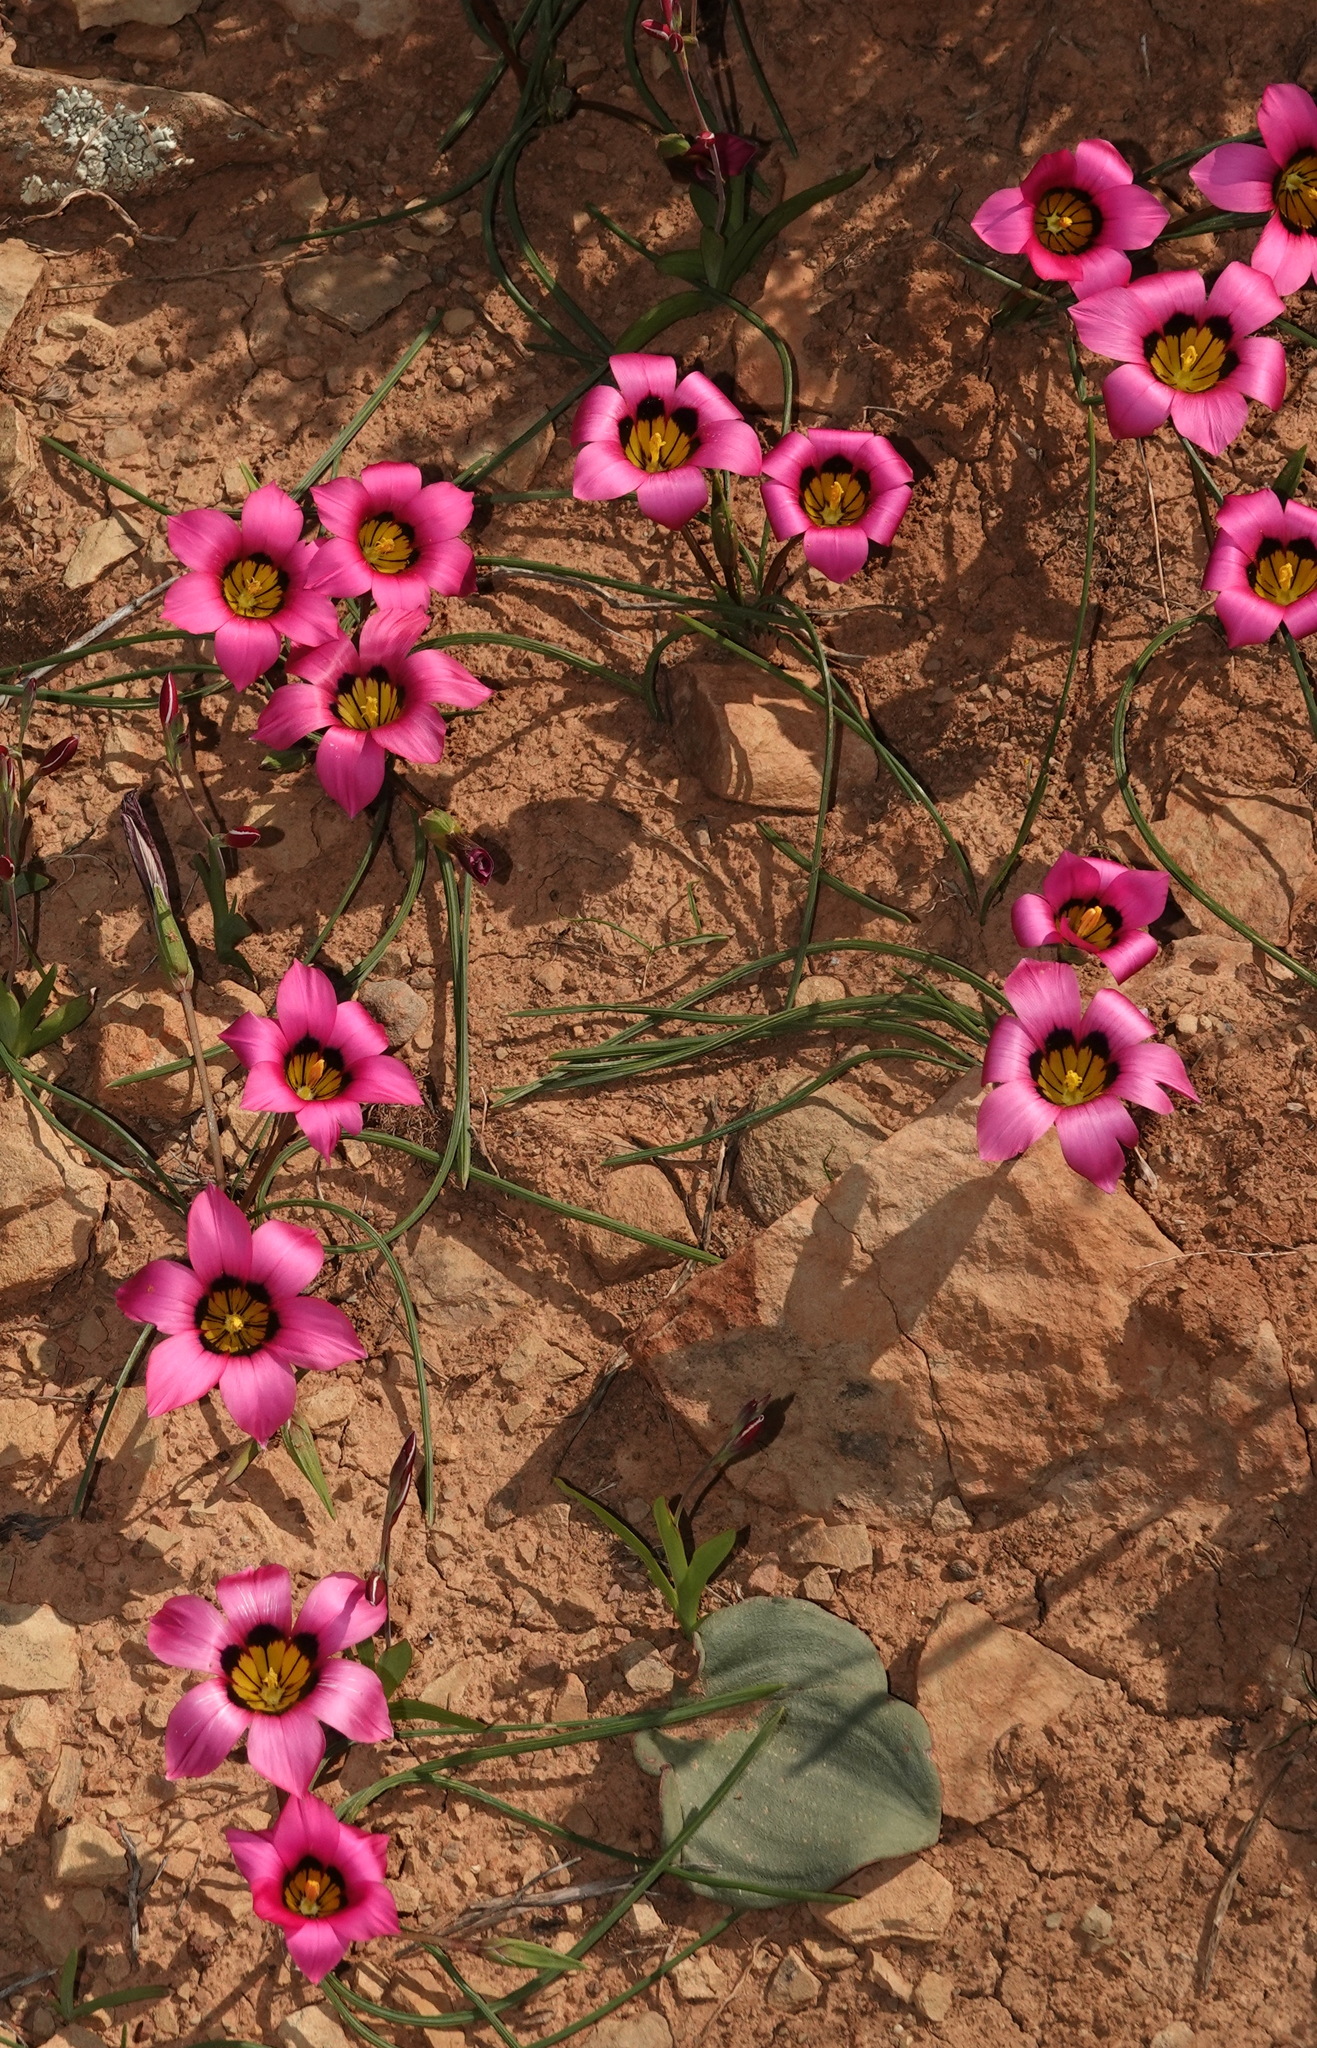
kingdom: Plantae
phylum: Tracheophyta
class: Liliopsida
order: Asparagales
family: Iridaceae
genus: Romulea
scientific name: Romulea subfistulosa
